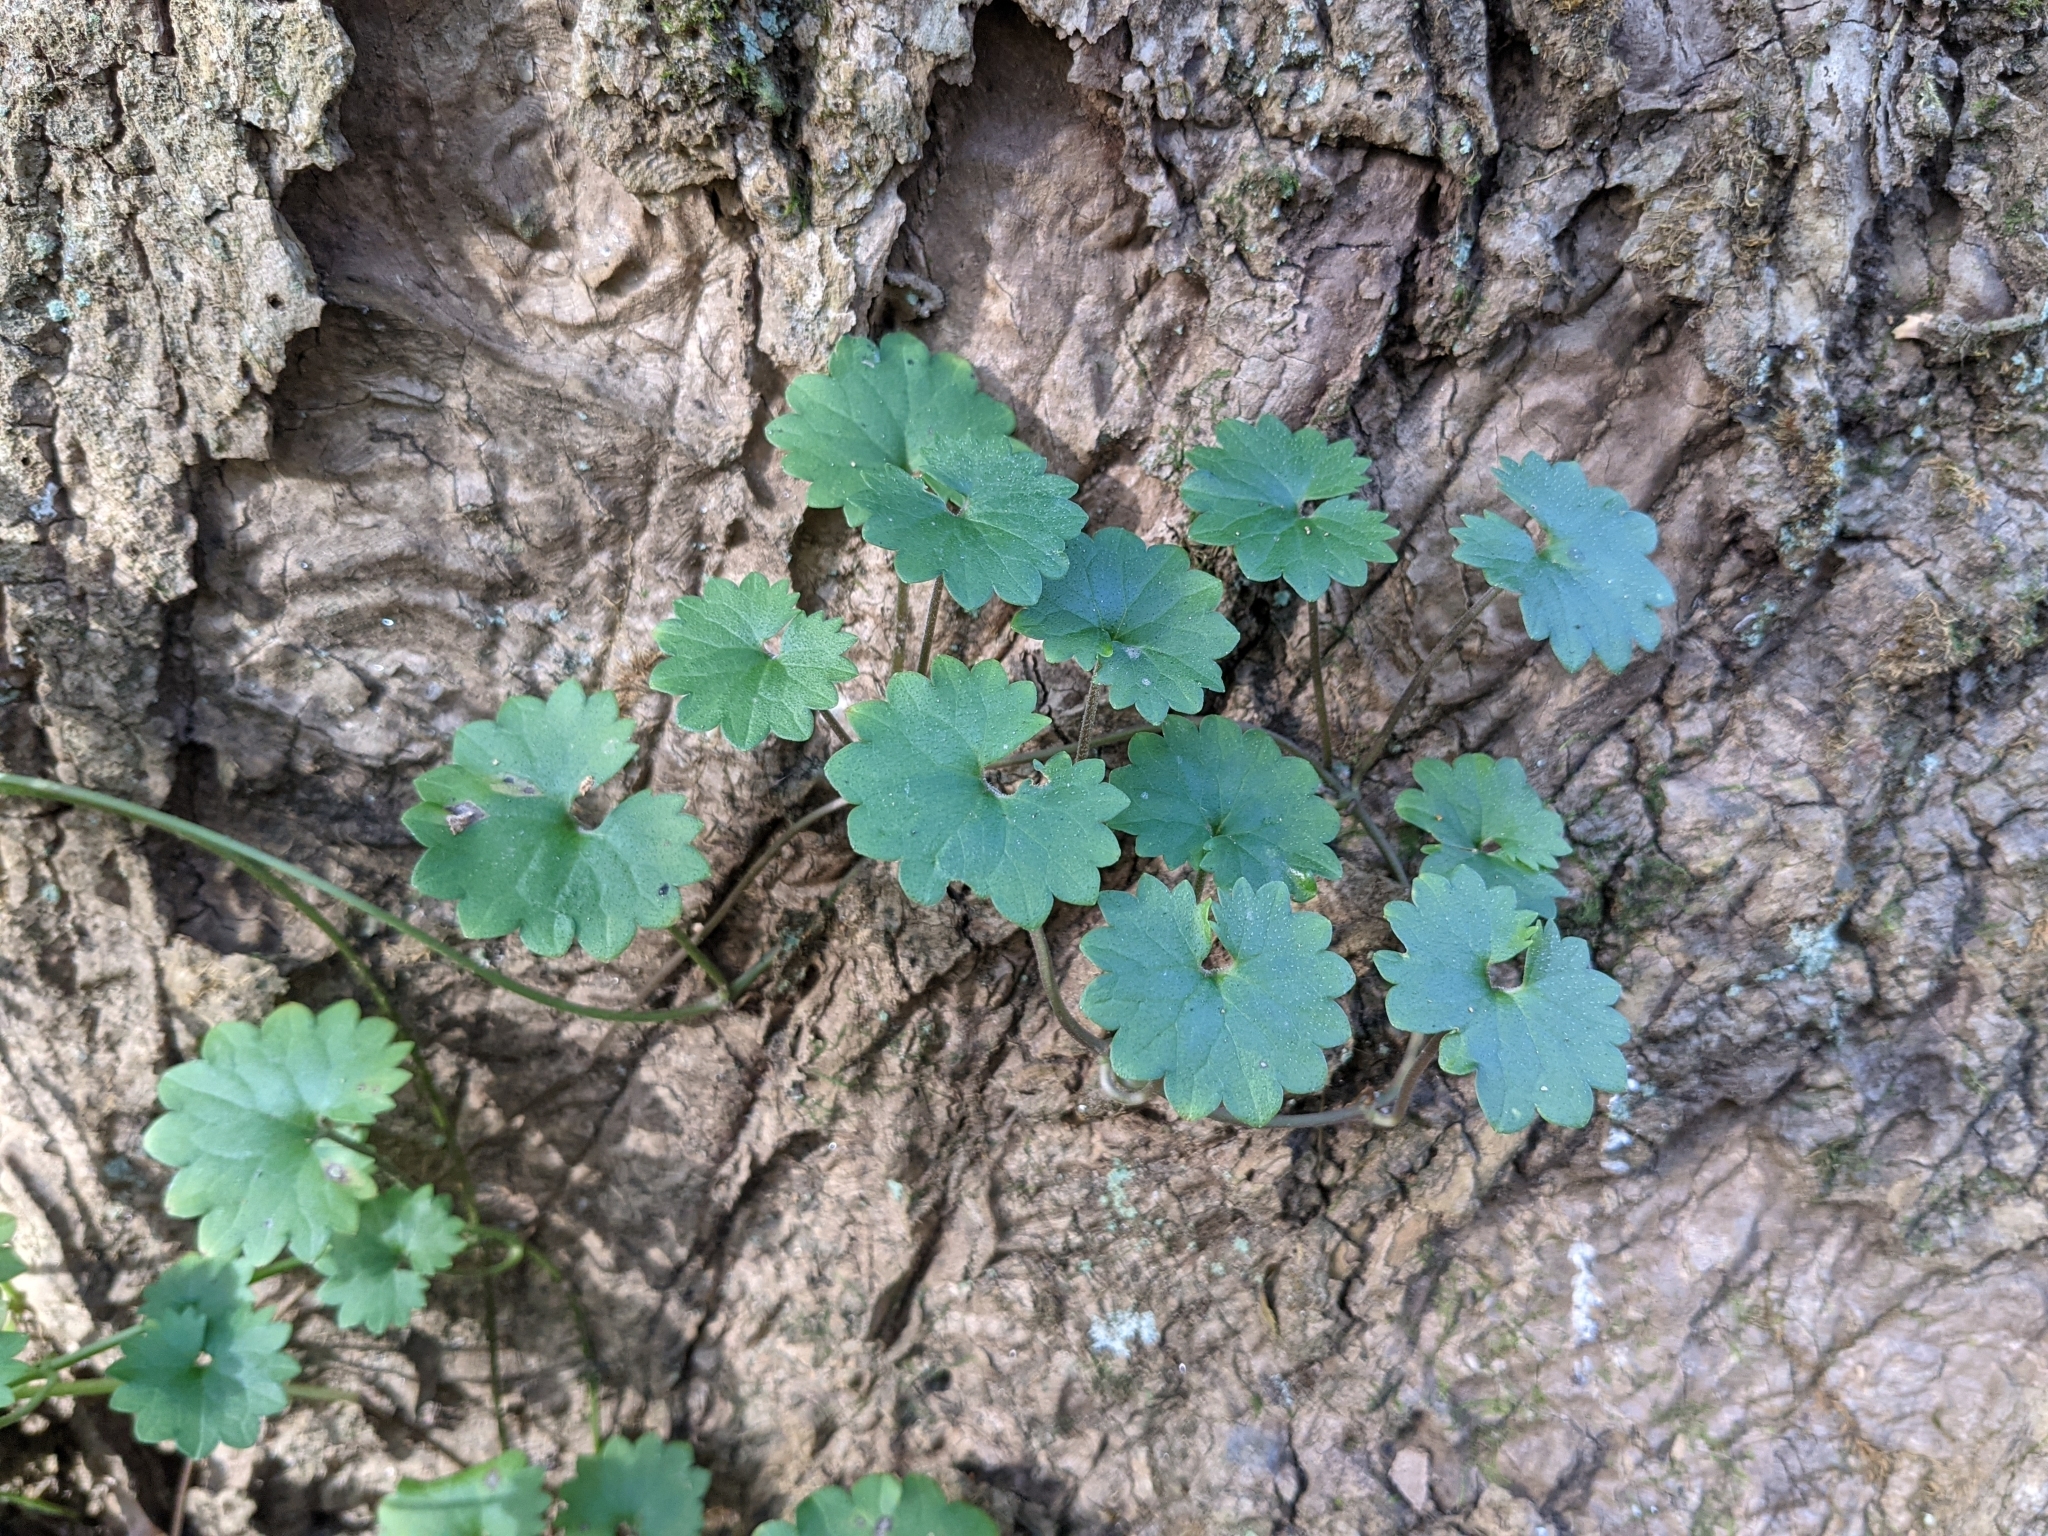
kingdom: Plantae
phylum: Tracheophyta
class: Magnoliopsida
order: Lamiales
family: Lamiaceae
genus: Glechoma
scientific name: Glechoma hederacea
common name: Ground ivy
